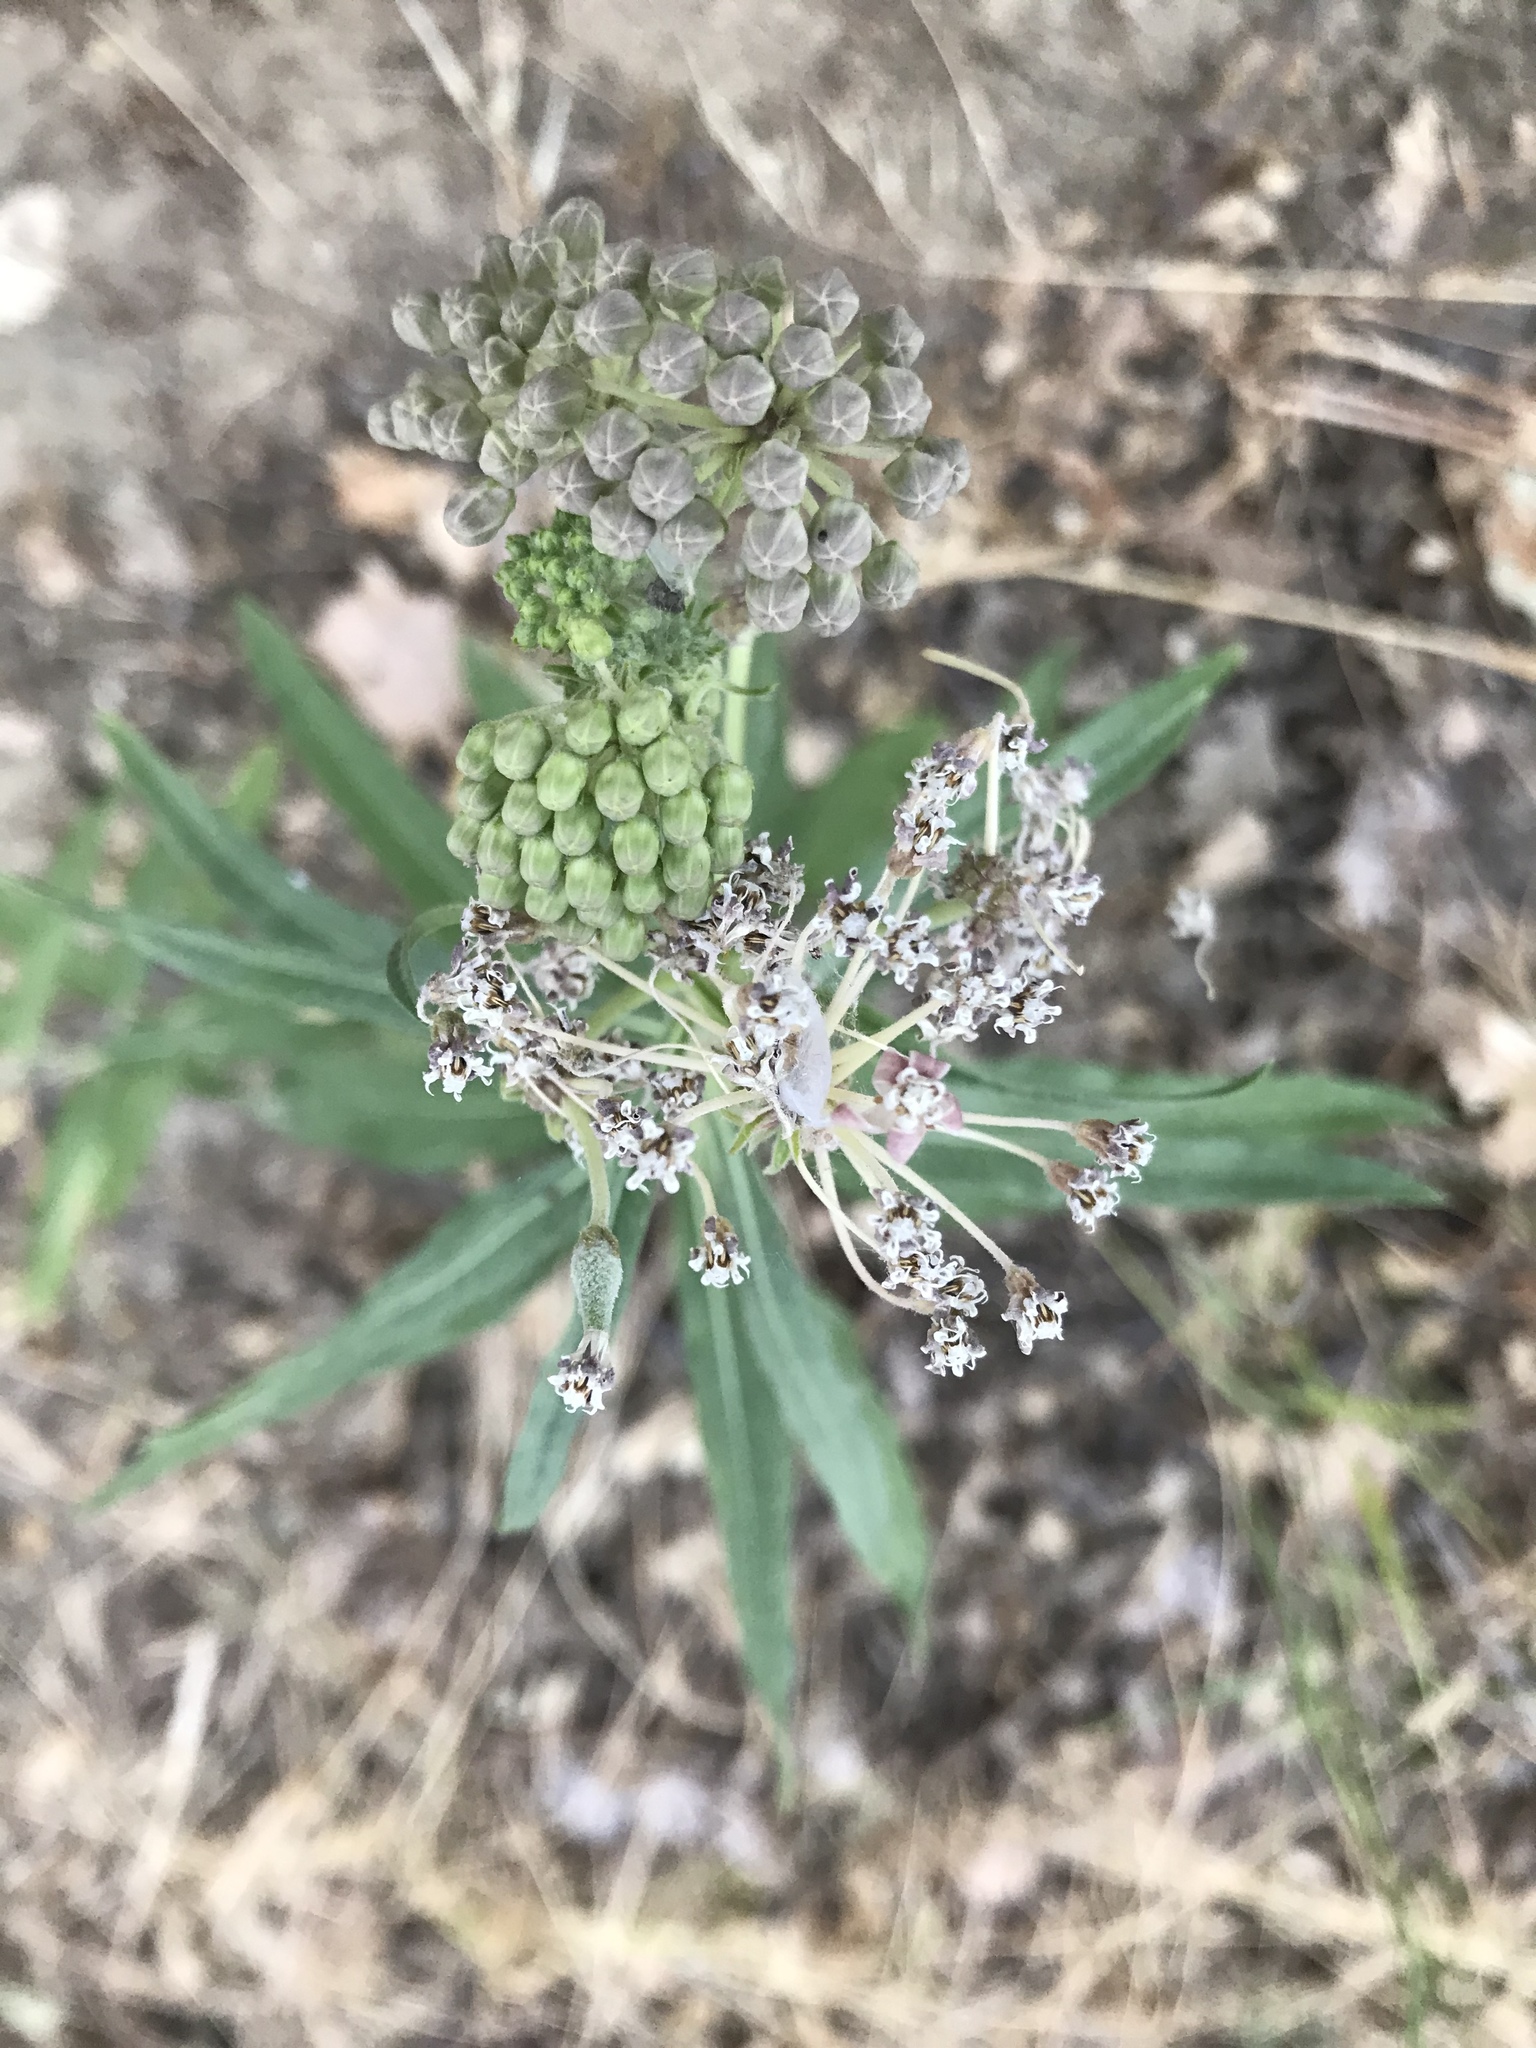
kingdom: Plantae
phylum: Tracheophyta
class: Magnoliopsida
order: Gentianales
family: Apocynaceae
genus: Asclepias
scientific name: Asclepias fascicularis
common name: Mexican milkweed
